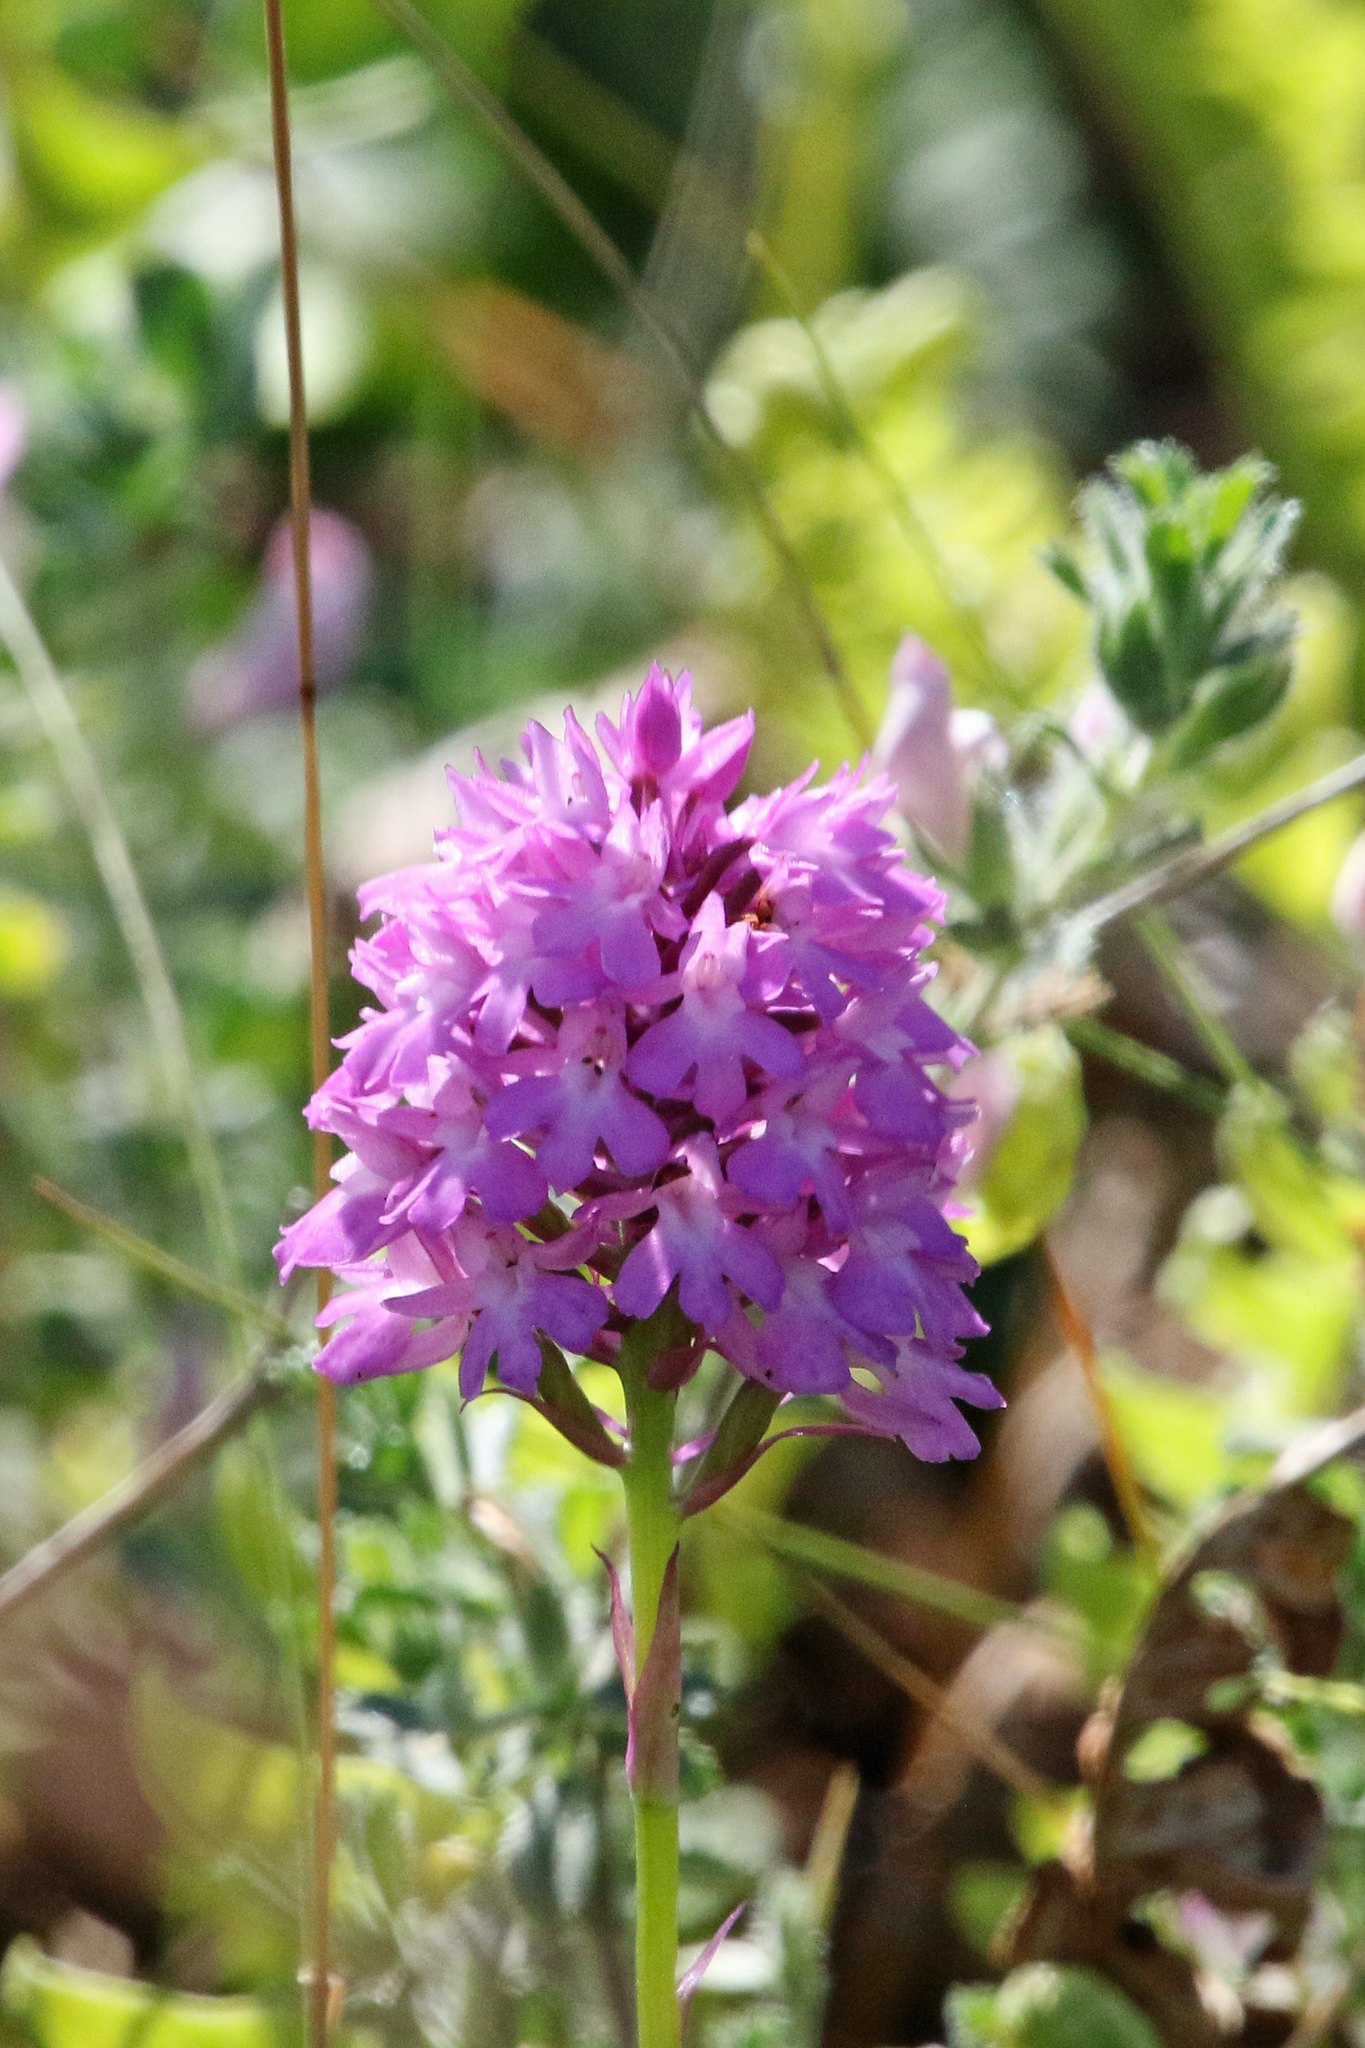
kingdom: Plantae
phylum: Tracheophyta
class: Liliopsida
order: Asparagales
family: Orchidaceae
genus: Anacamptis
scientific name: Anacamptis pyramidalis
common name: Pyramidal orchid
